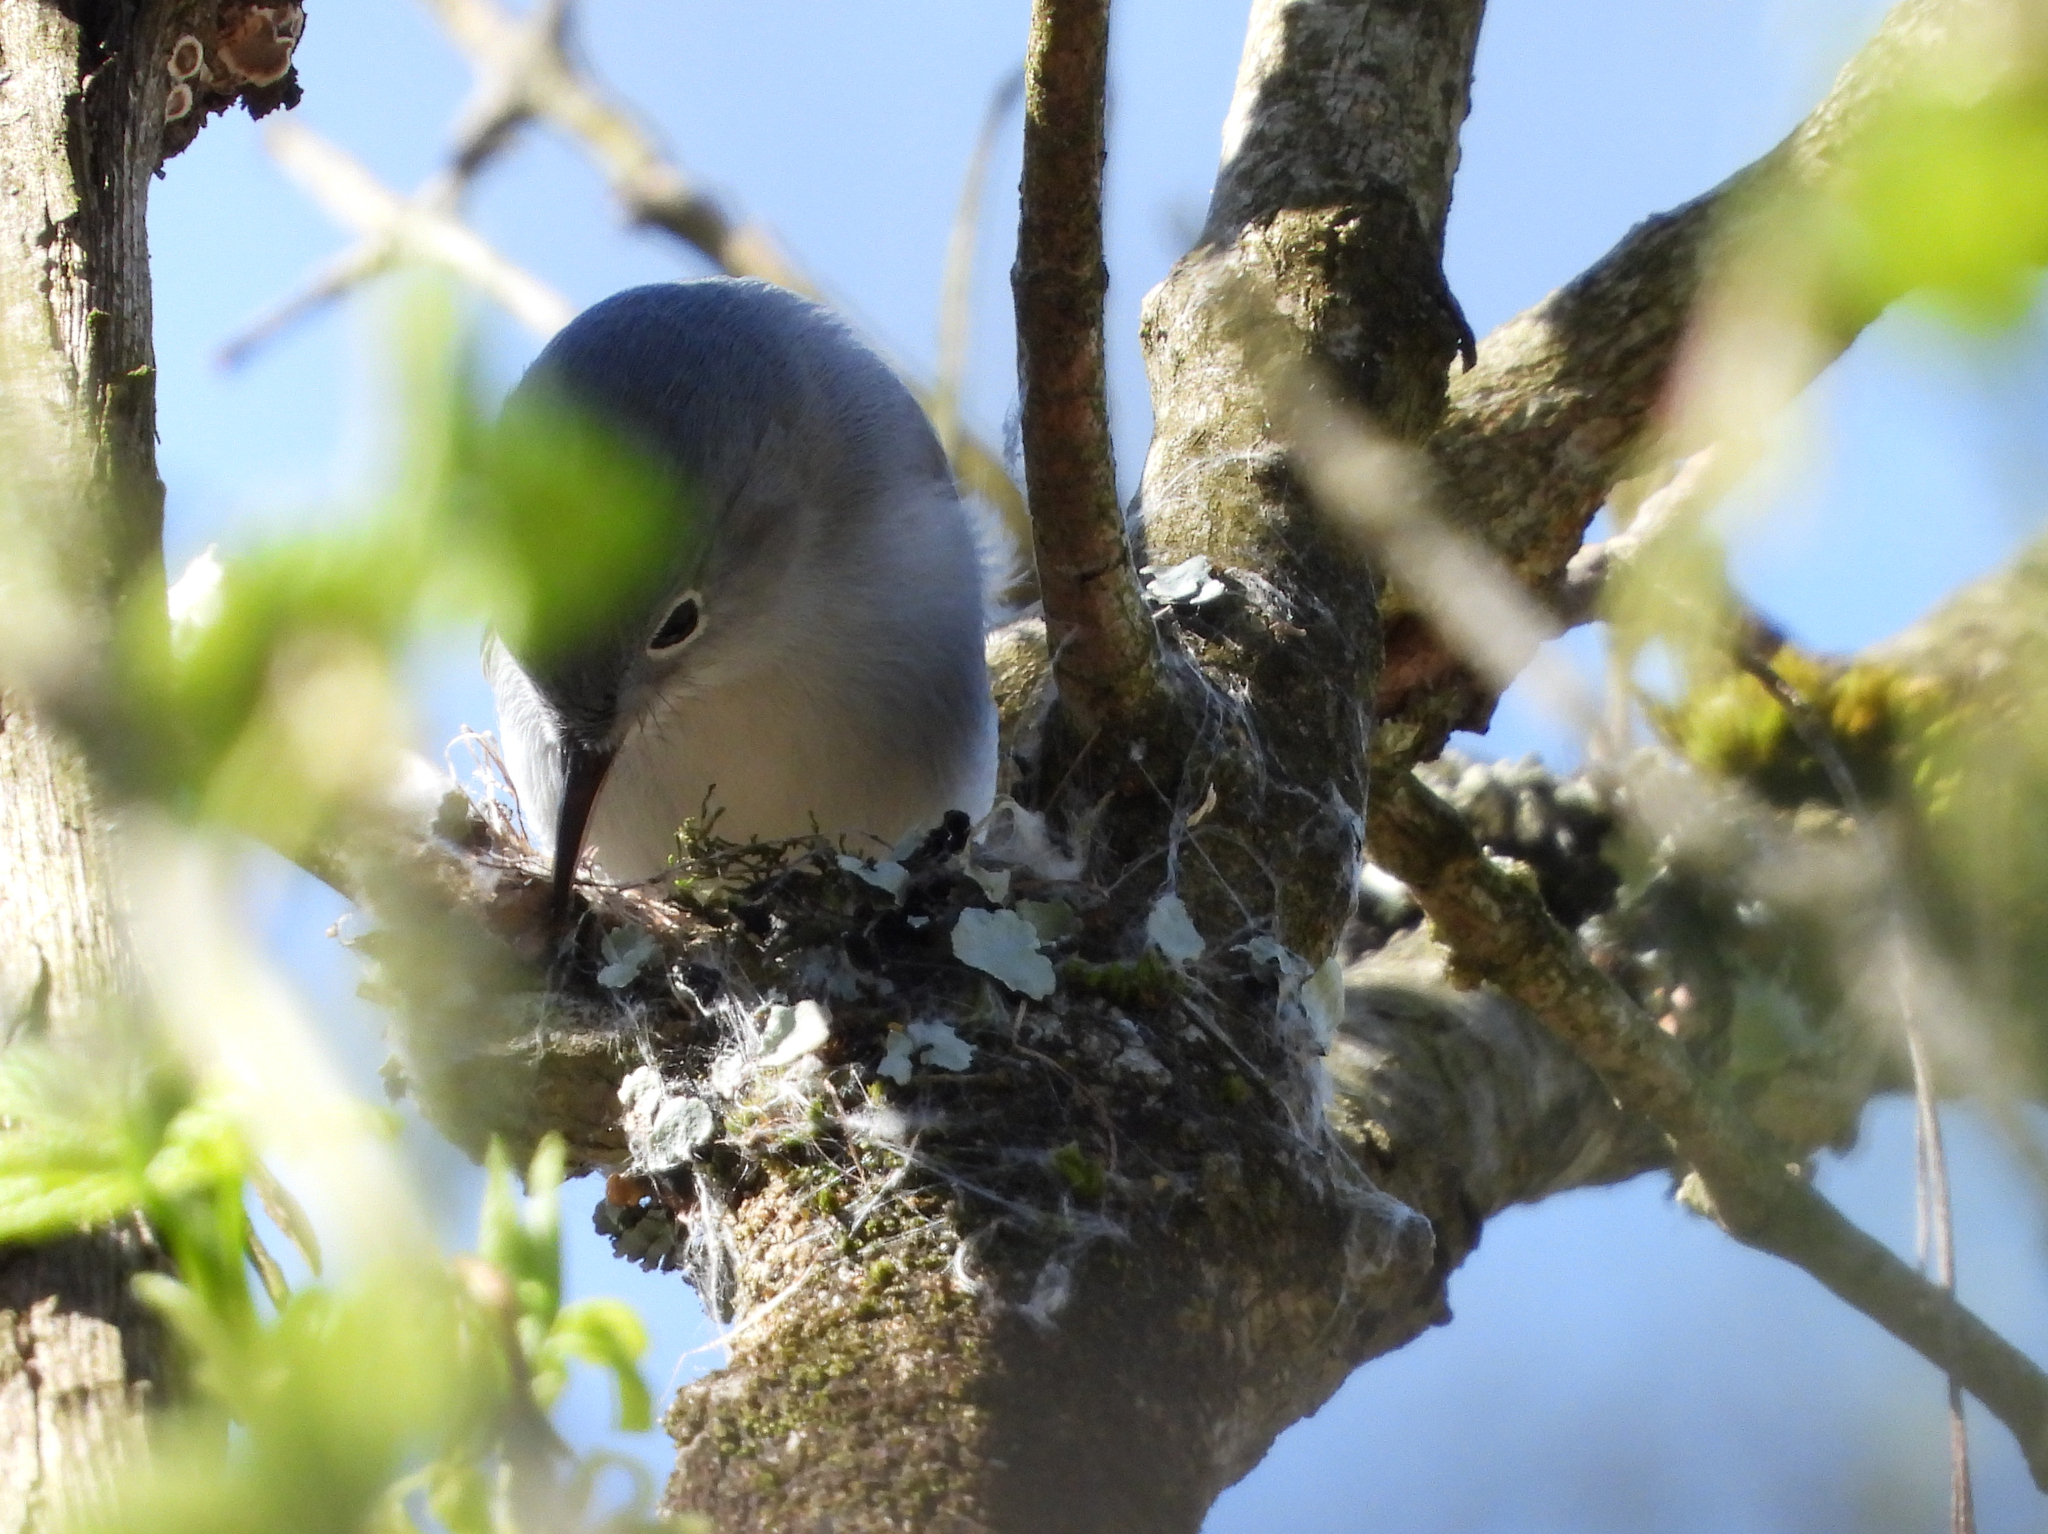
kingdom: Animalia
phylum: Chordata
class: Aves
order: Passeriformes
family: Polioptilidae
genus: Polioptila
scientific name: Polioptila caerulea
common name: Blue-gray gnatcatcher
